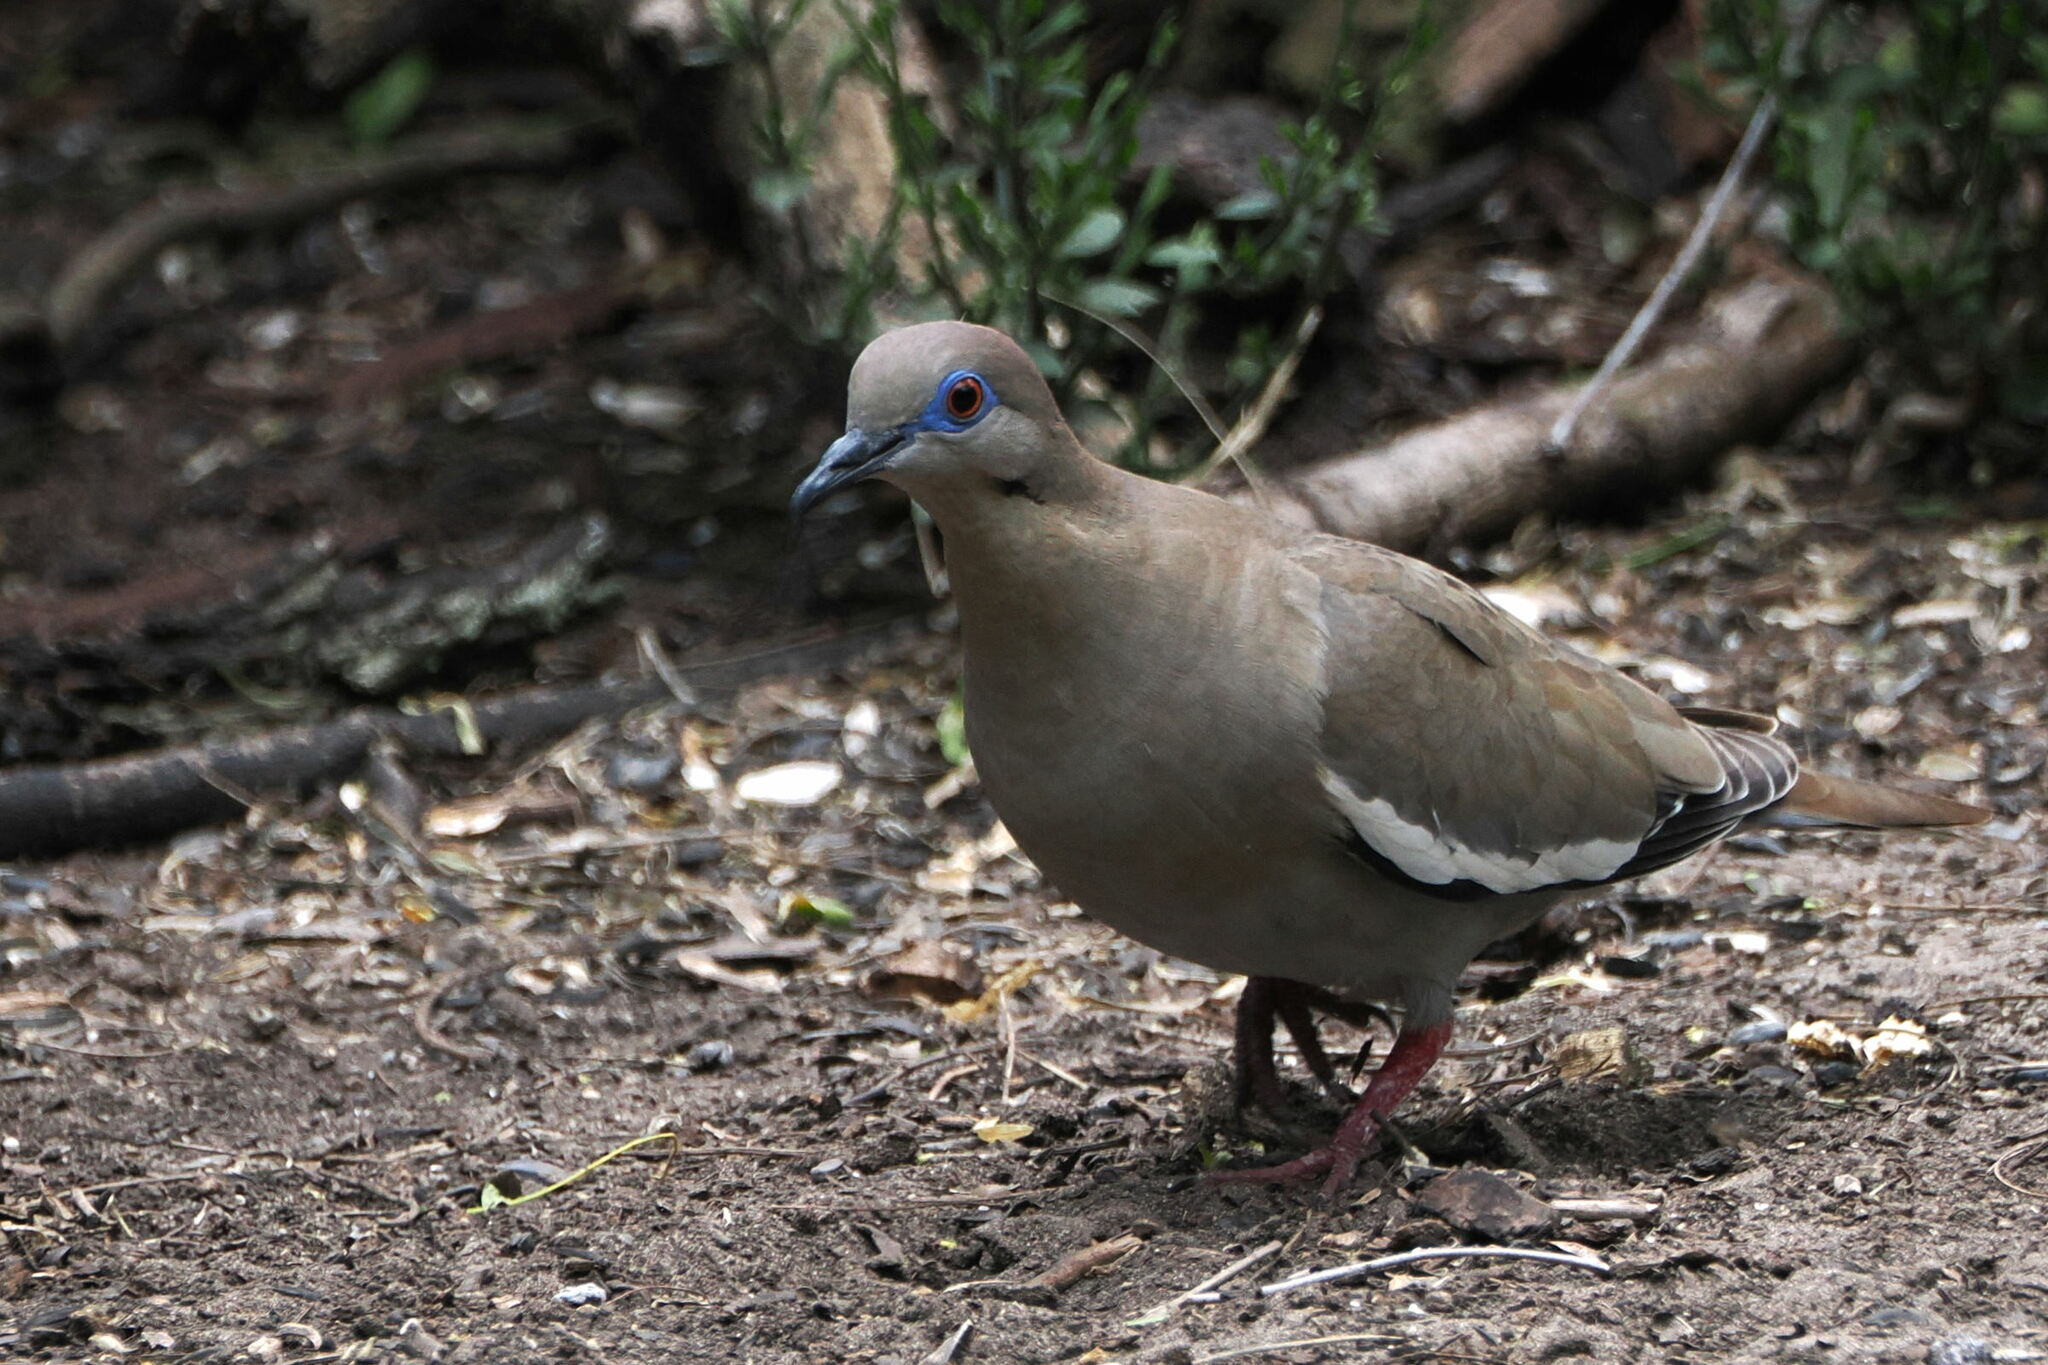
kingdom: Animalia
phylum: Chordata
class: Aves
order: Columbiformes
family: Columbidae
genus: Zenaida
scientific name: Zenaida asiatica
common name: White-winged dove
